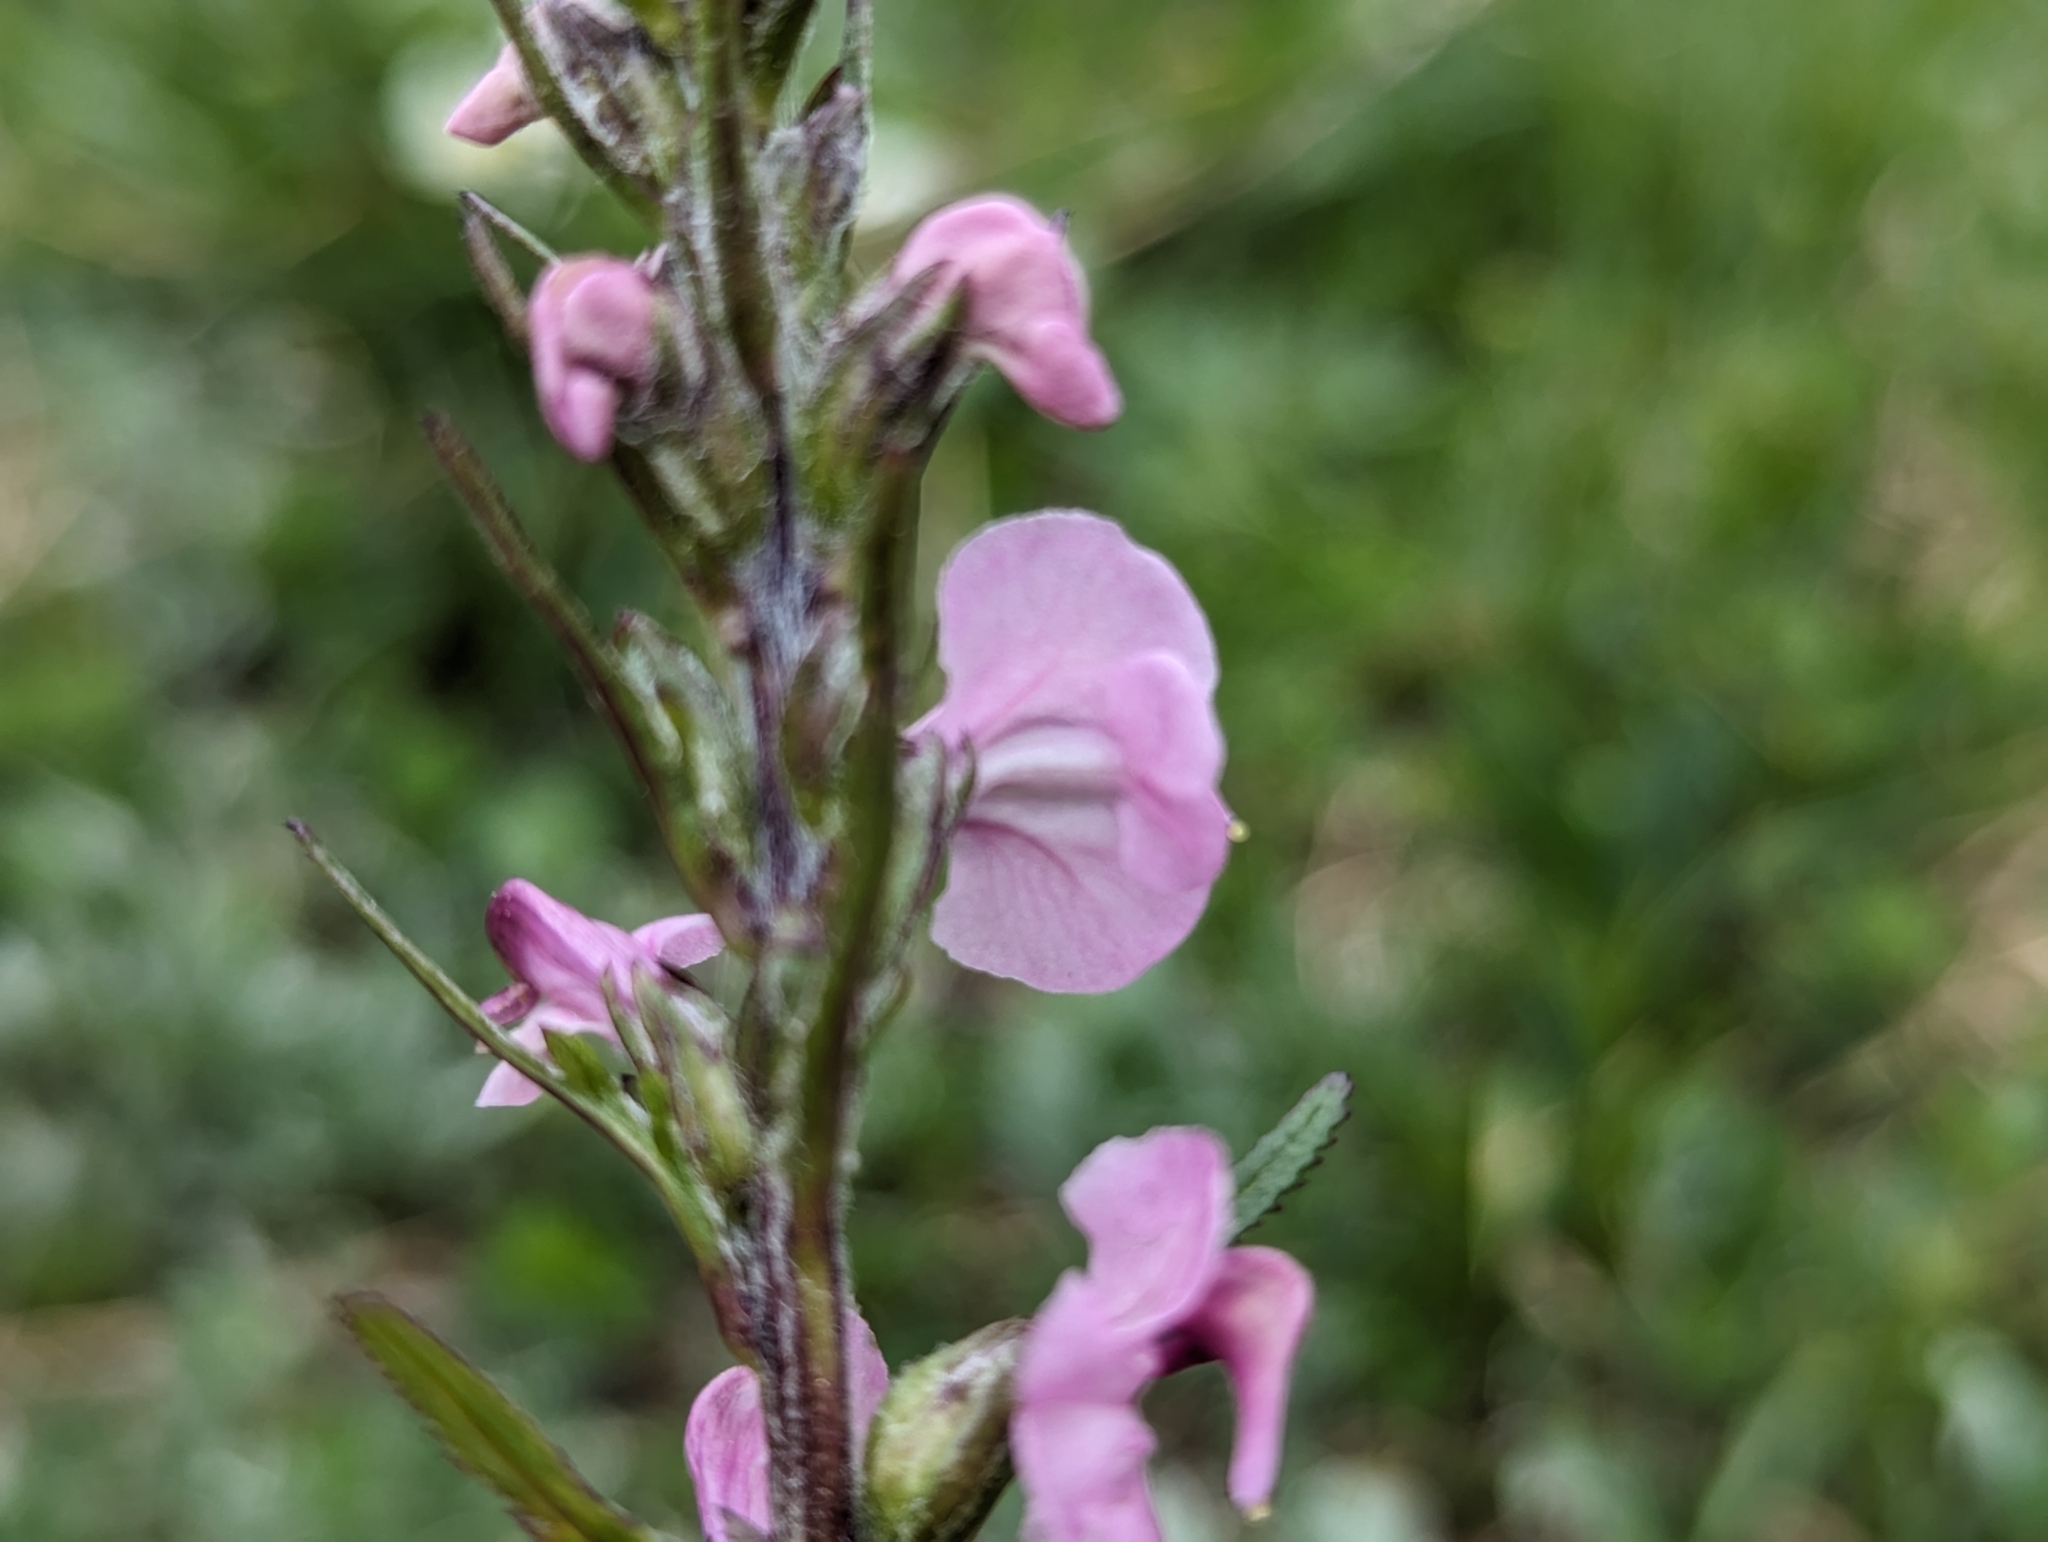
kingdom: Plantae
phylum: Tracheophyta
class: Magnoliopsida
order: Lamiales
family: Orobanchaceae
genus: Pedicularis
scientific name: Pedicularis rostratospicata
